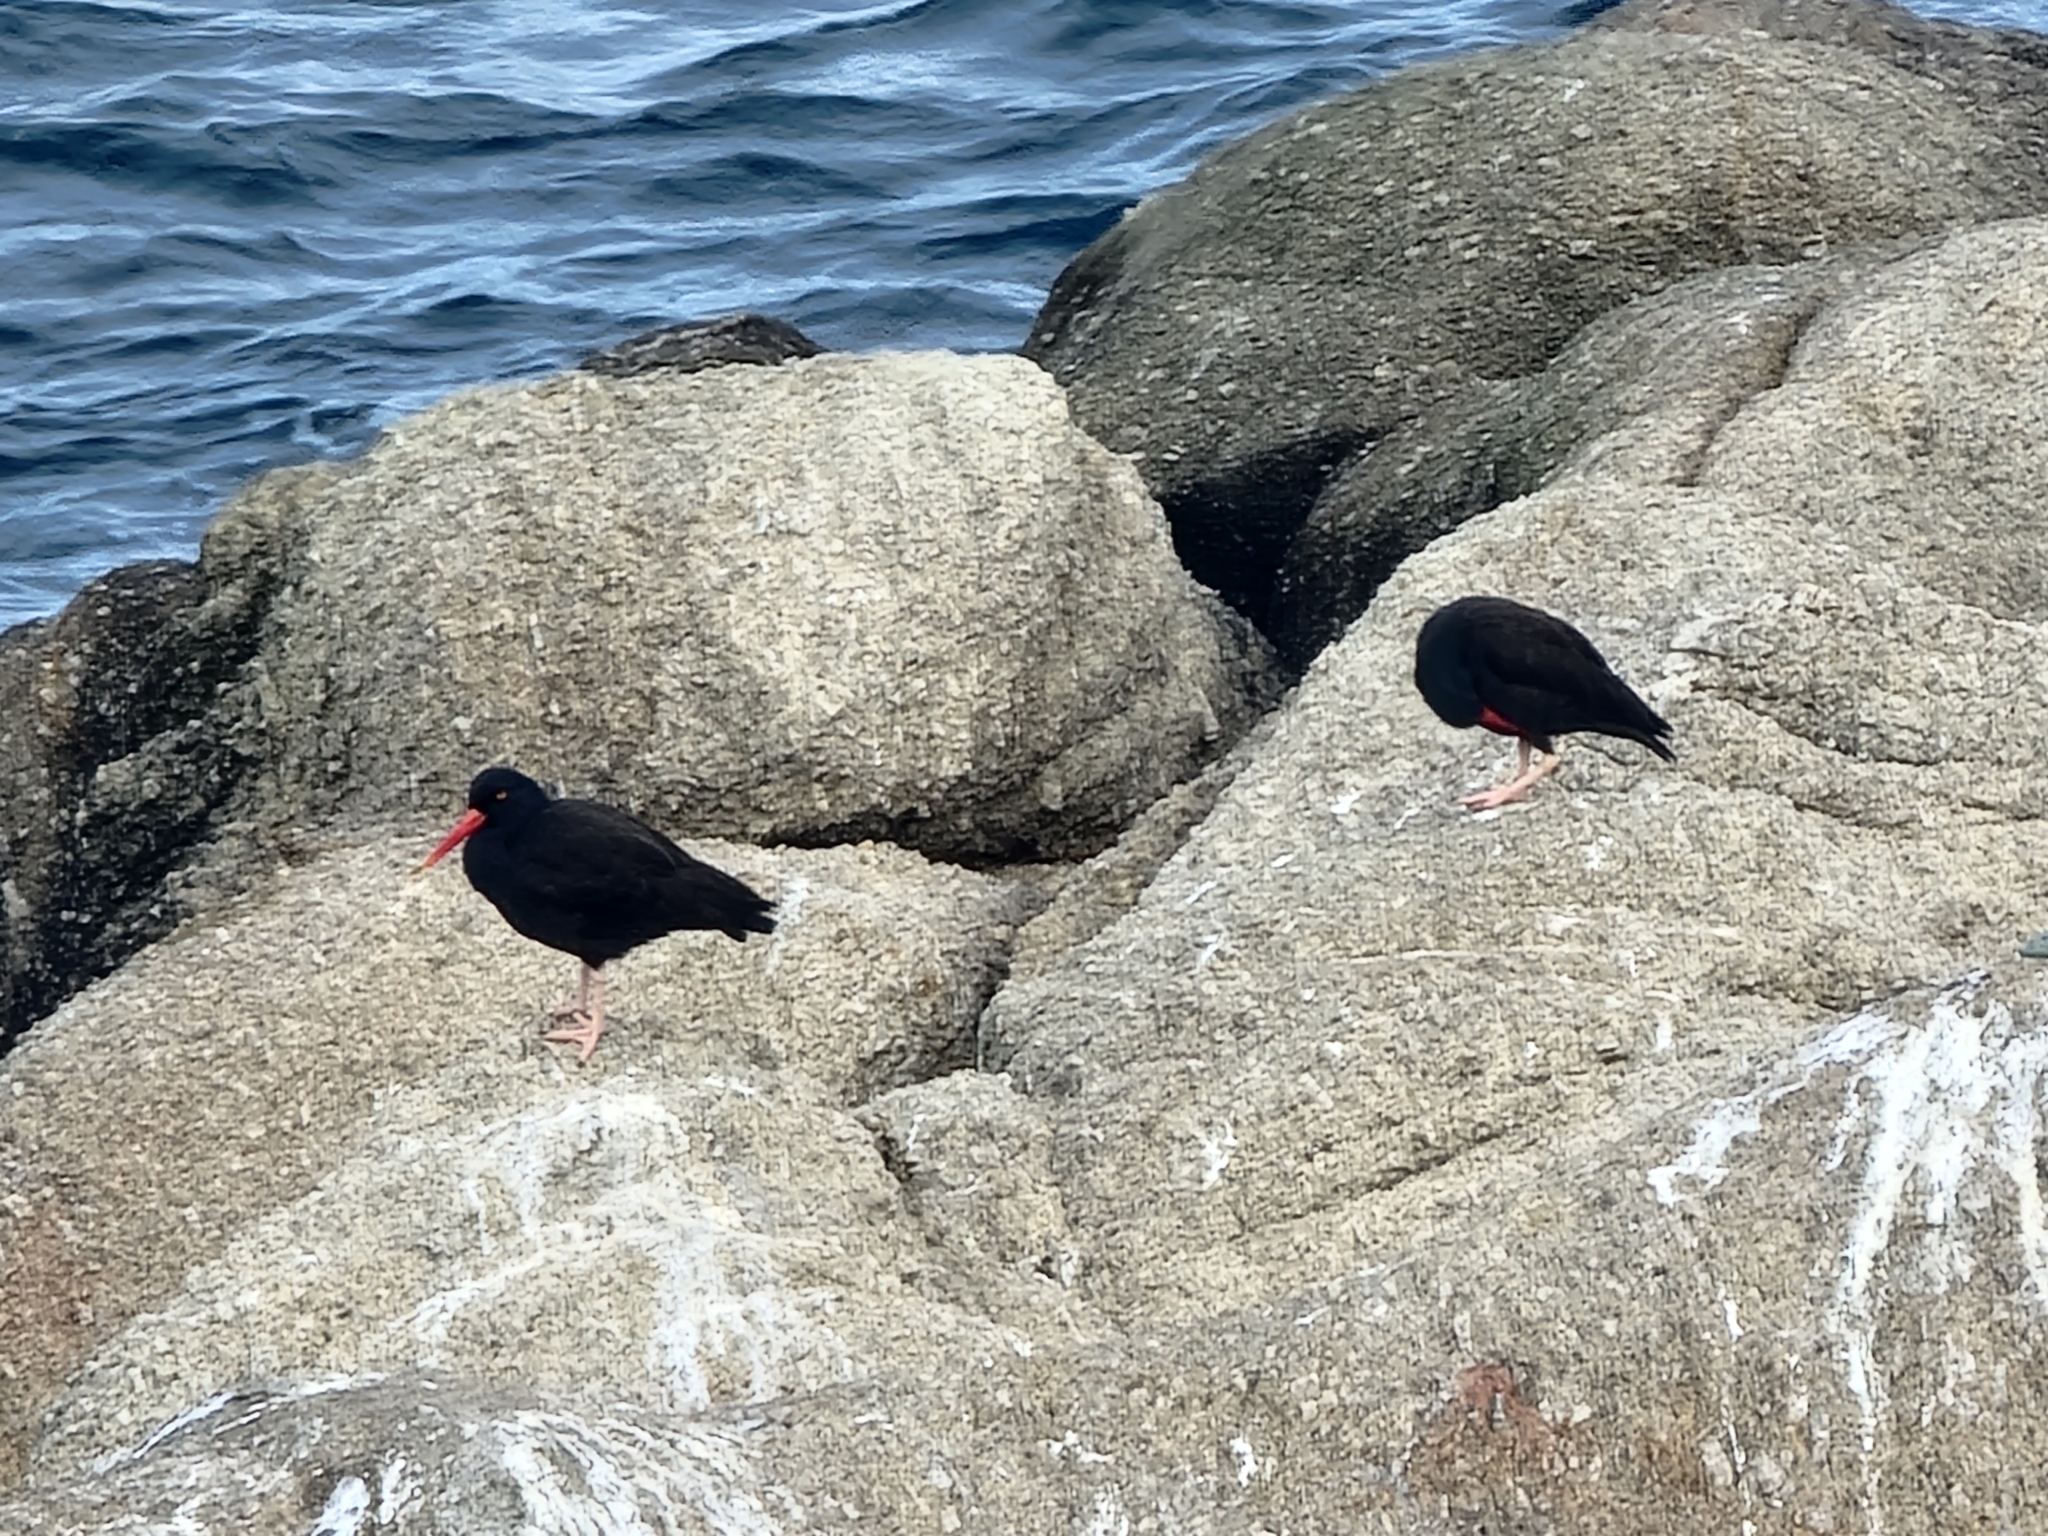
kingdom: Animalia
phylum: Chordata
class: Aves
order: Charadriiformes
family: Haematopodidae
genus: Haematopus
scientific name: Haematopus bachmani
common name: Black oystercatcher
